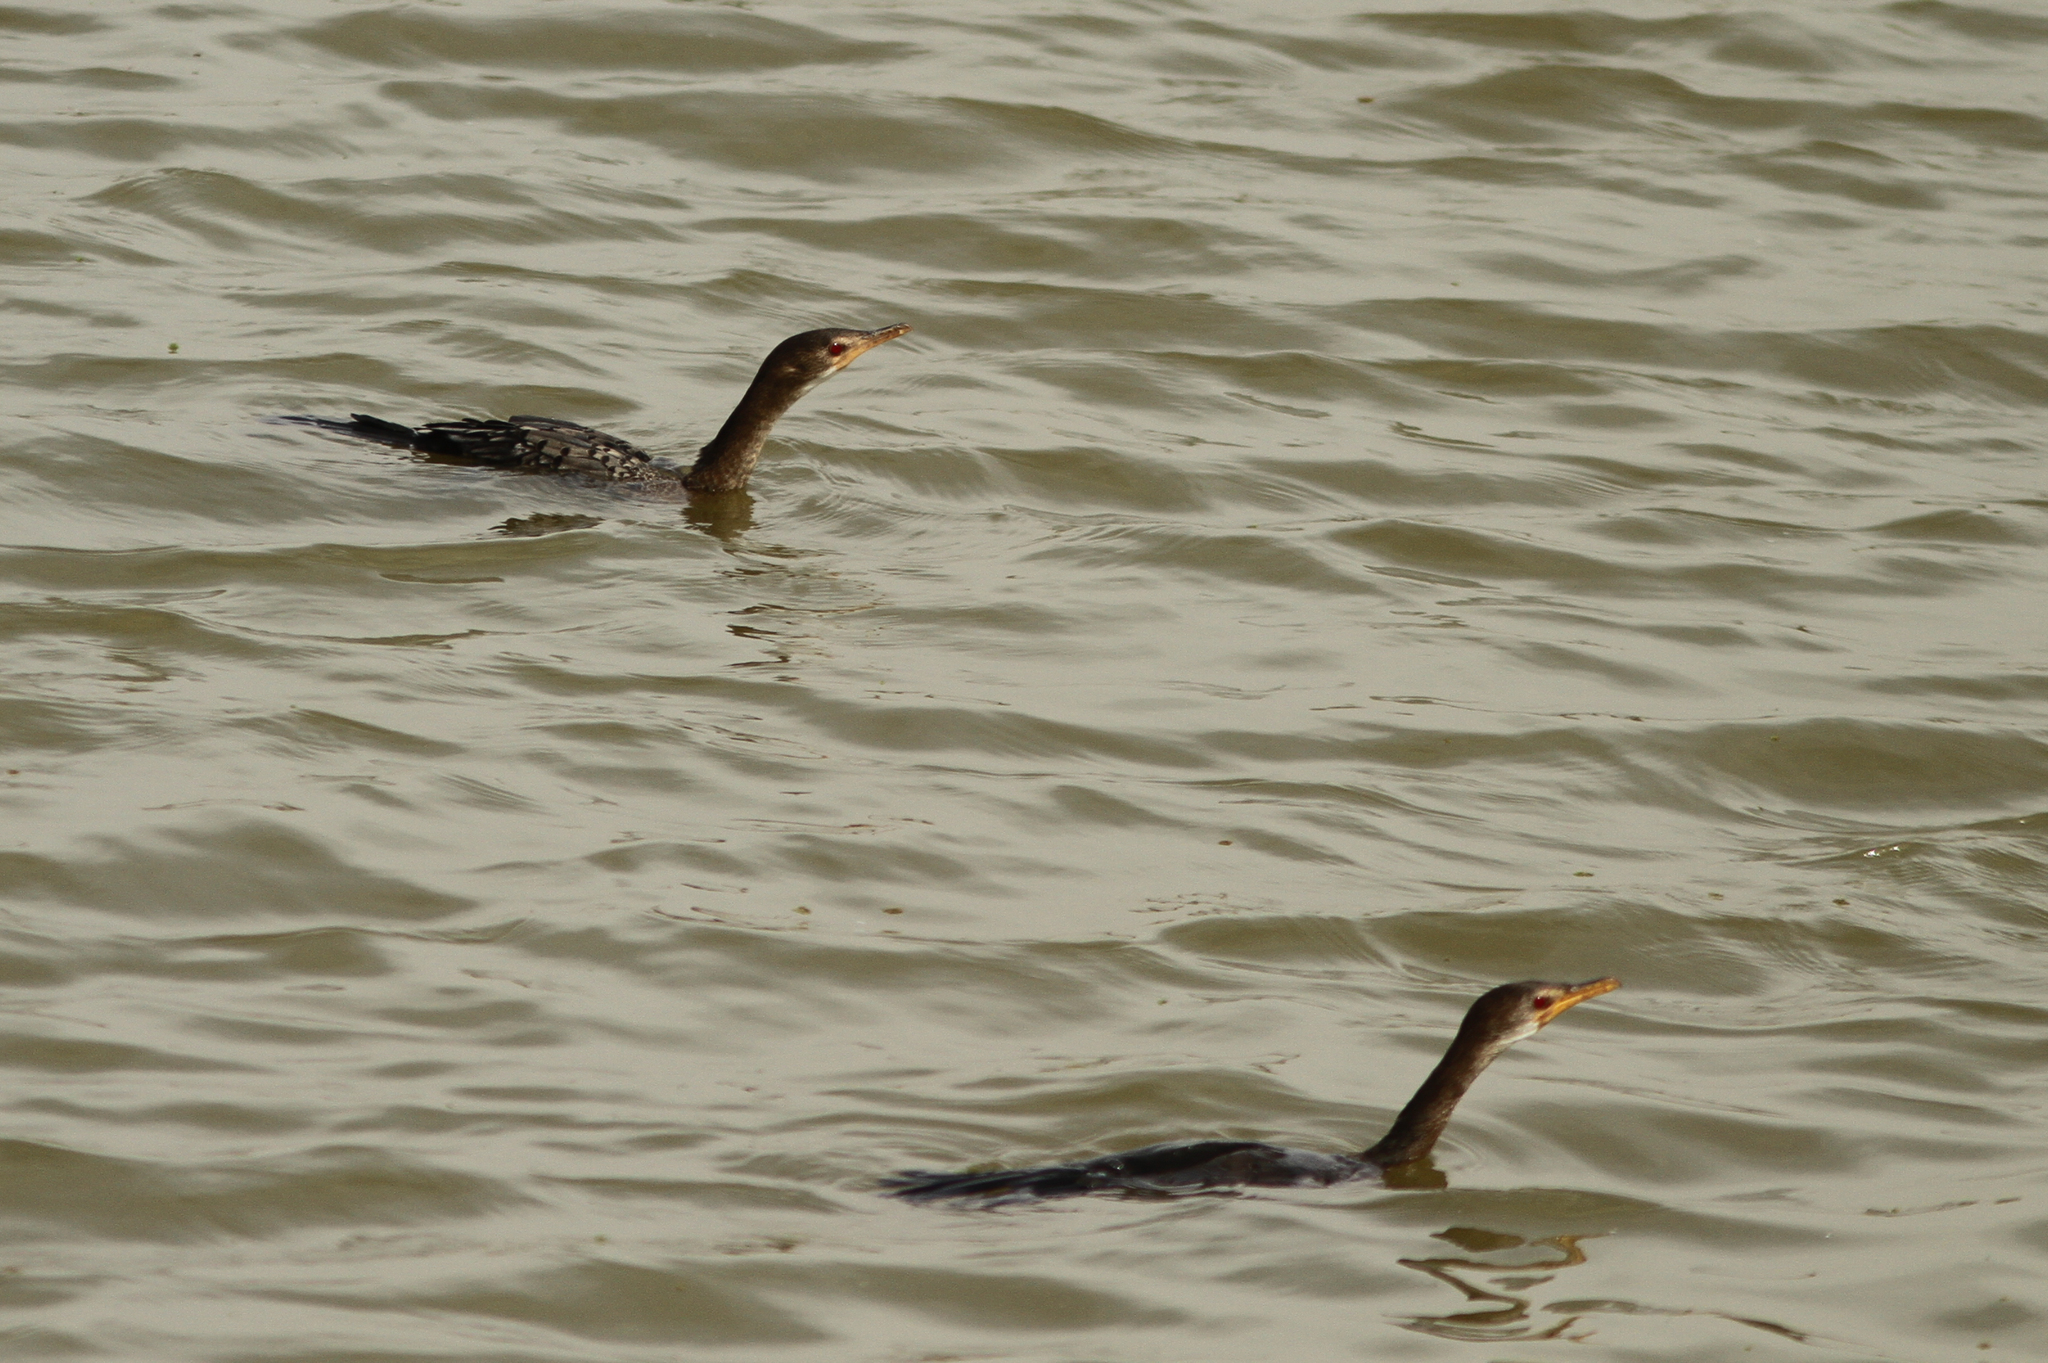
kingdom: Animalia
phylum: Chordata
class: Aves
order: Suliformes
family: Phalacrocoracidae
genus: Microcarbo
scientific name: Microcarbo africanus
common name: Long-tailed cormorant
